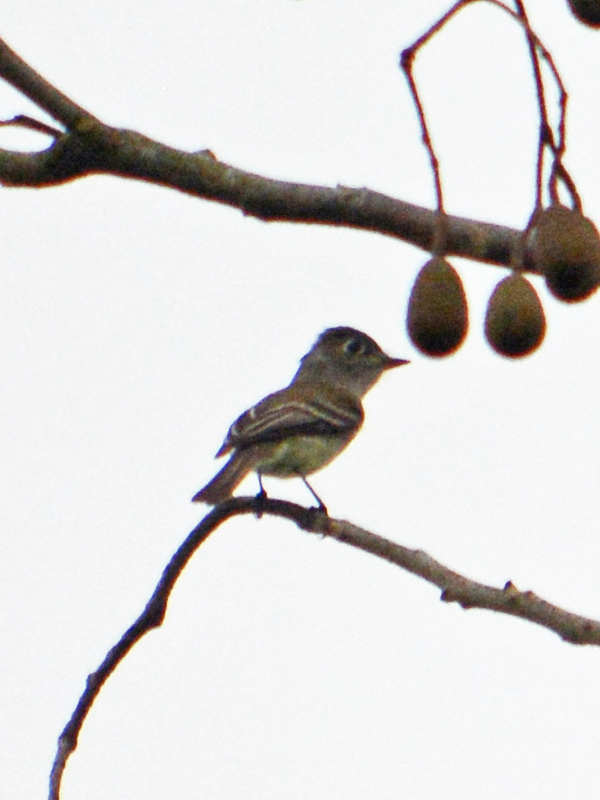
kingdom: Animalia
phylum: Chordata
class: Aves
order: Passeriformes
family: Tyrannidae
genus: Empidonax
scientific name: Empidonax minimus
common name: Least flycatcher
